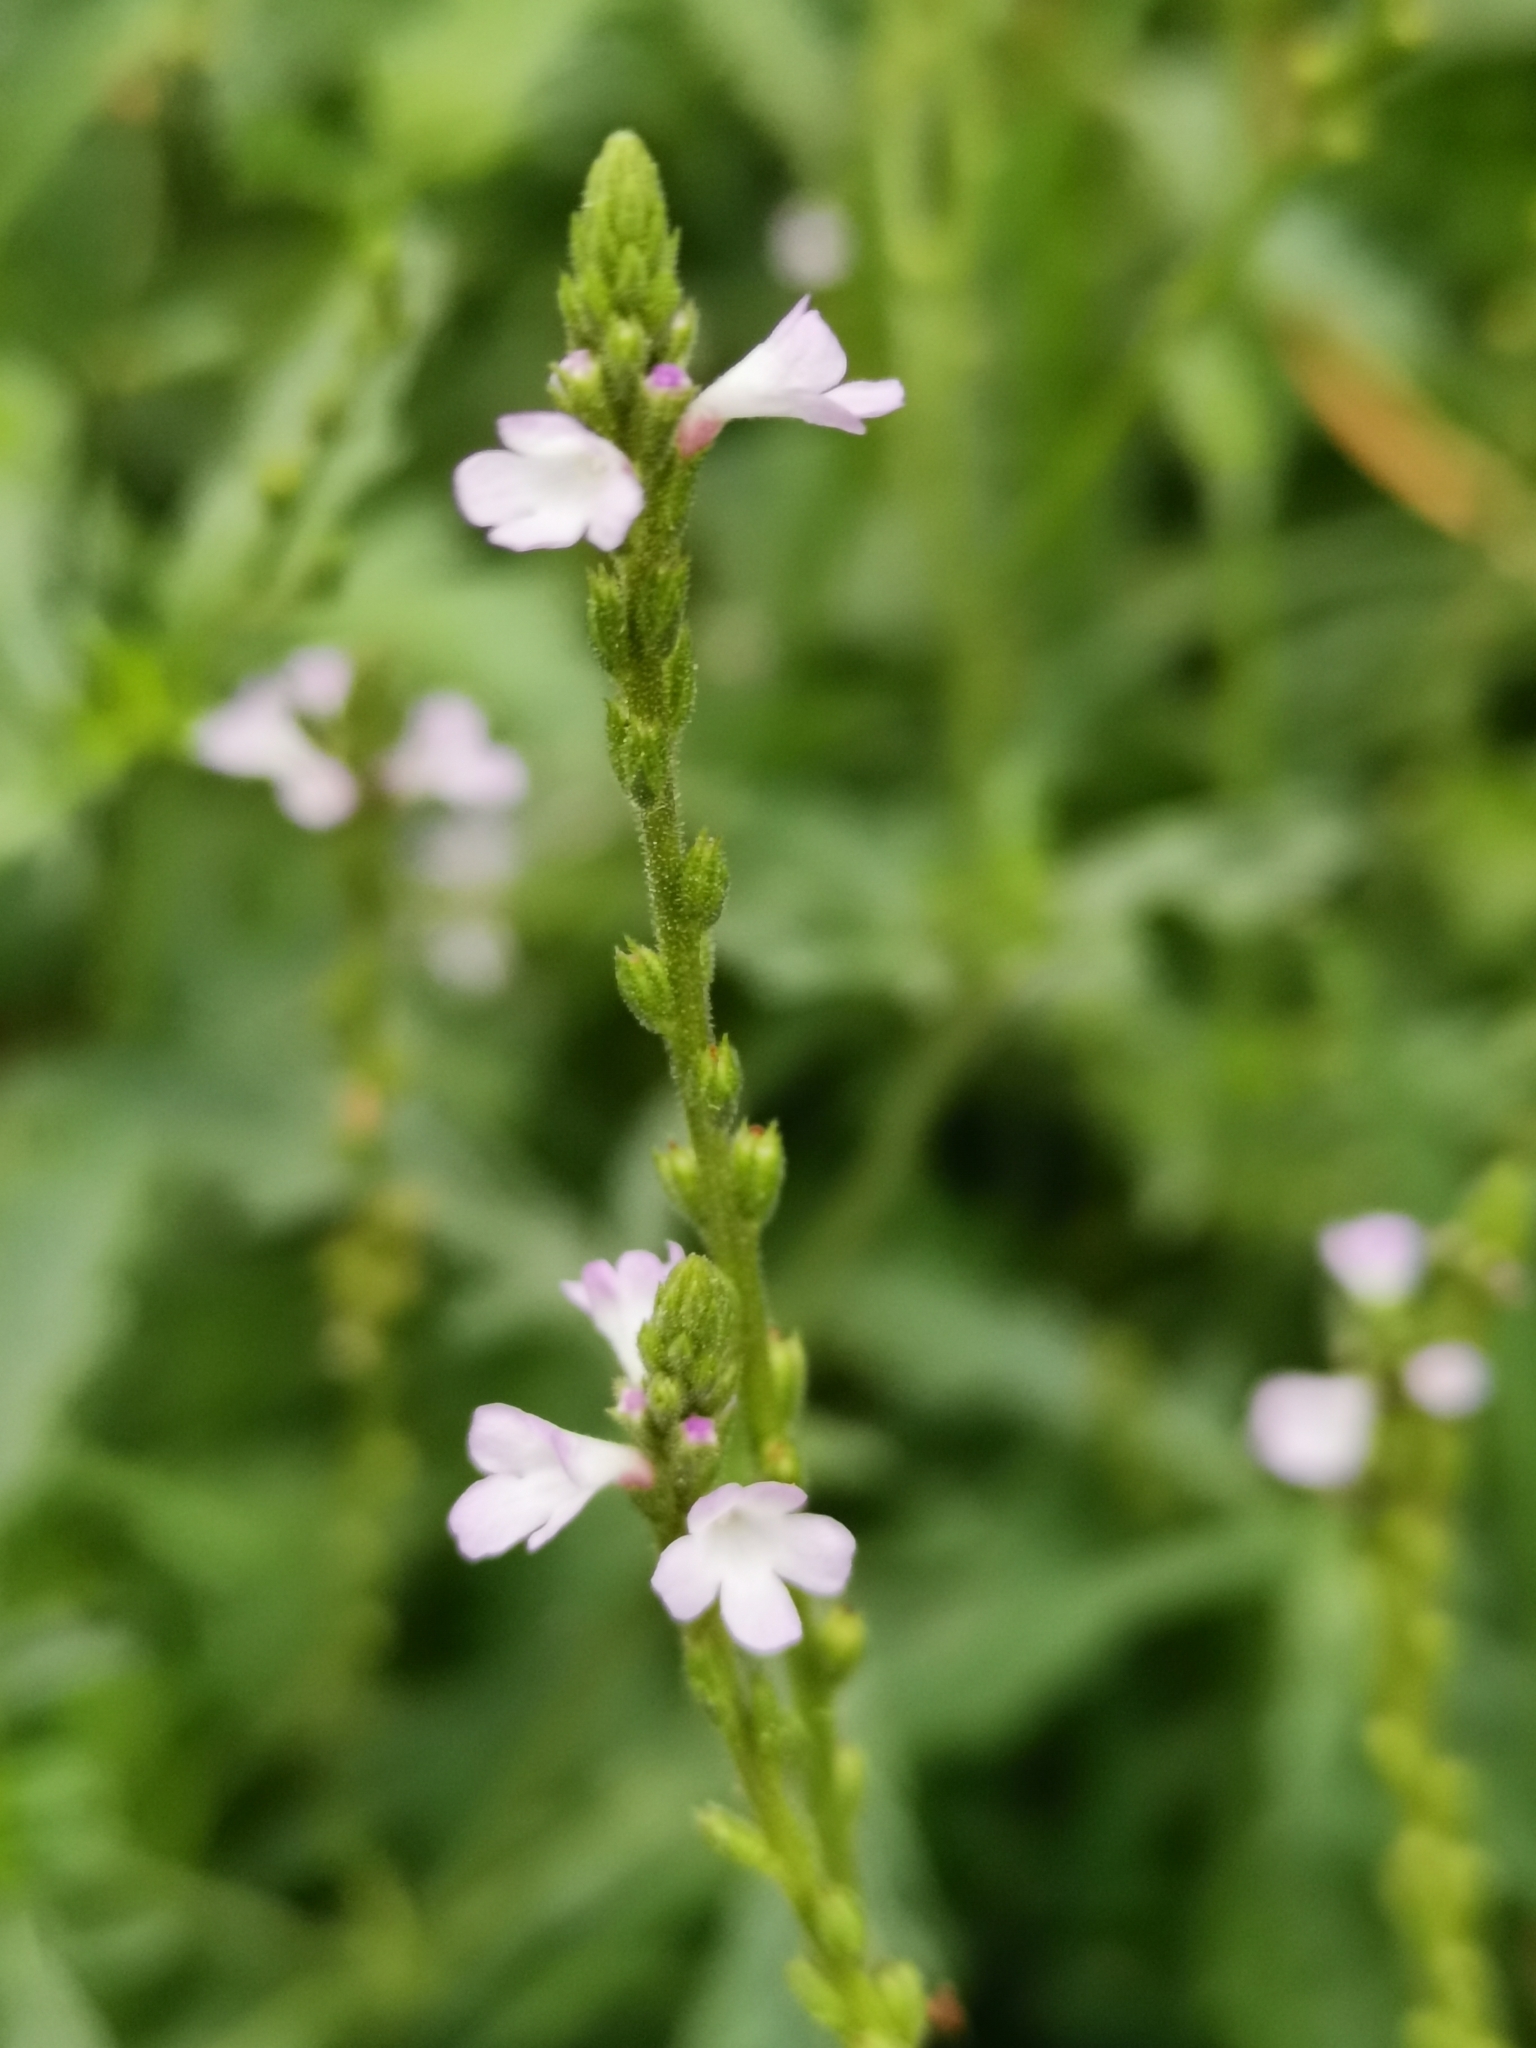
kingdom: Plantae
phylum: Tracheophyta
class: Magnoliopsida
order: Lamiales
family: Verbenaceae
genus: Verbena
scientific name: Verbena officinalis
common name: Vervain
